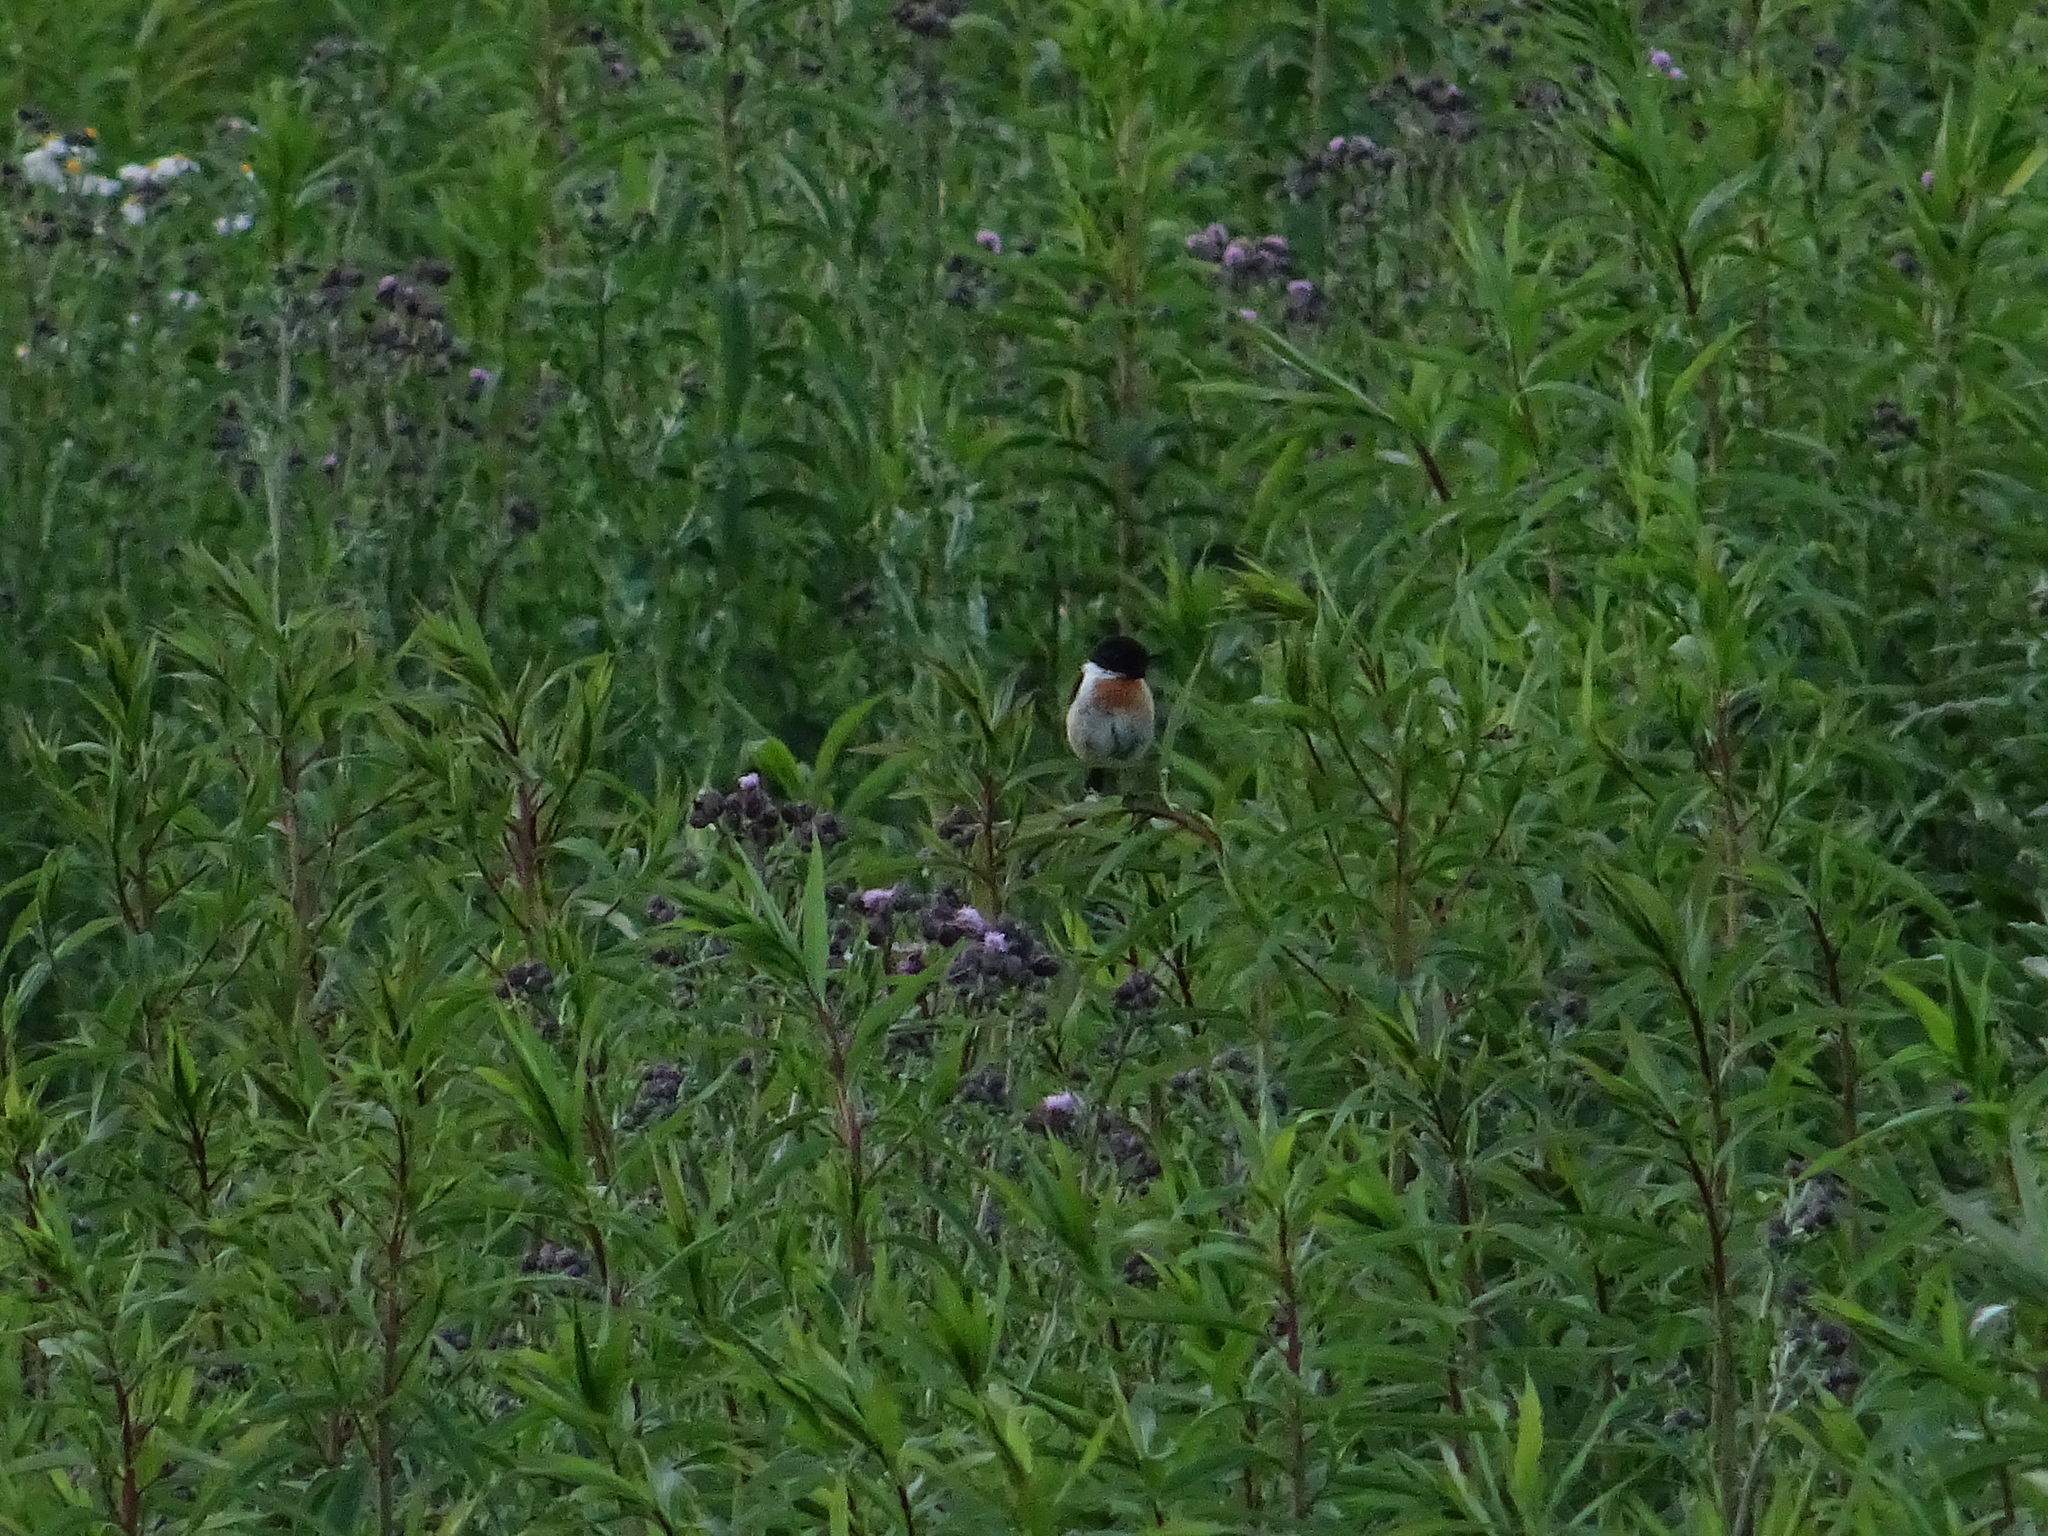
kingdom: Animalia
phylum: Chordata
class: Aves
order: Passeriformes
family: Muscicapidae
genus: Saxicola
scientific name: Saxicola rubicola
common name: European stonechat
